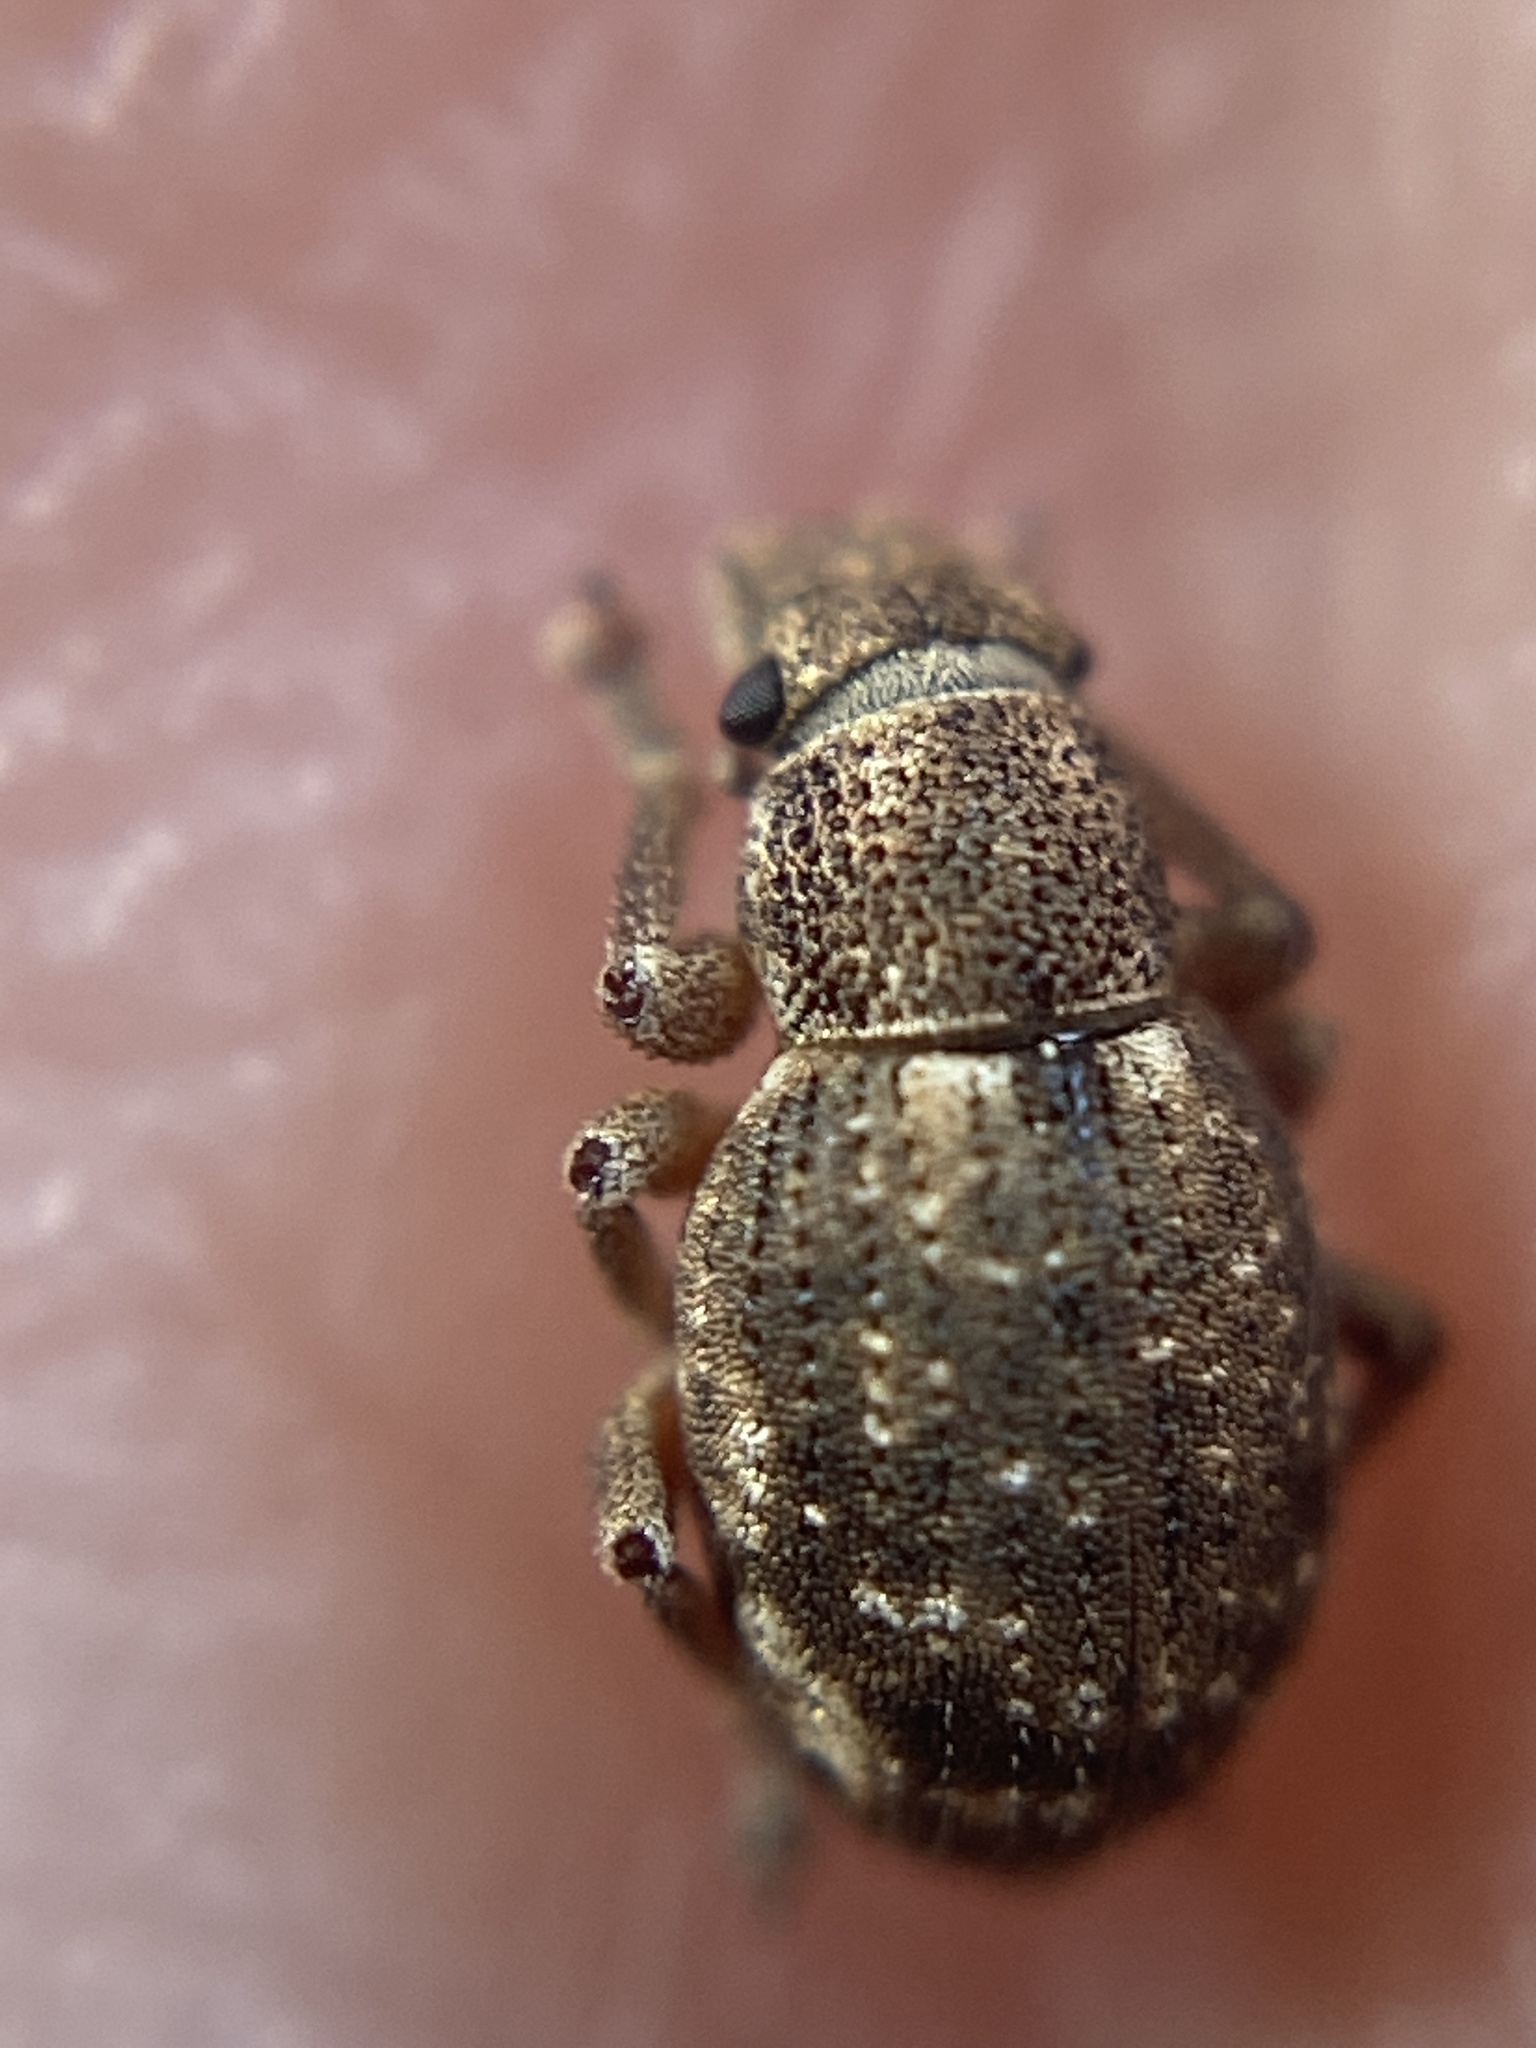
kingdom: Animalia
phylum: Arthropoda
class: Insecta
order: Coleoptera
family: Curculionidae
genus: Strophosoma
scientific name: Strophosoma capitatum
